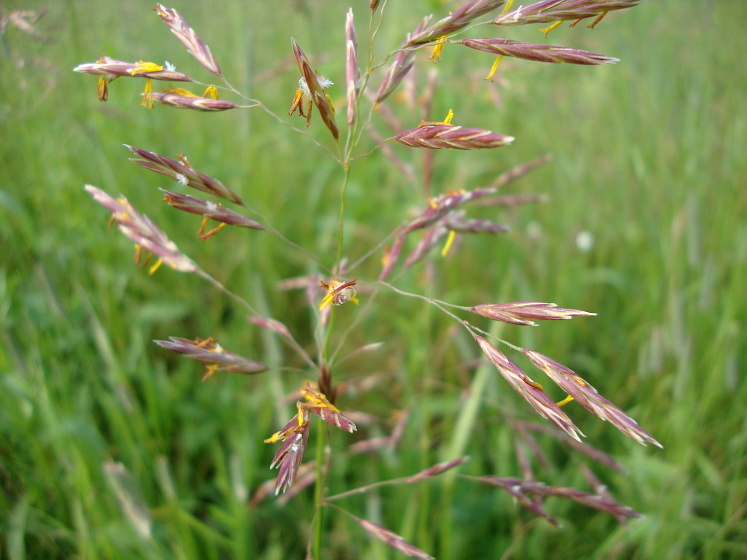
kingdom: Plantae
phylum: Tracheophyta
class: Liliopsida
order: Poales
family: Poaceae
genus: Bromus
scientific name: Bromus inermis
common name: Smooth brome
